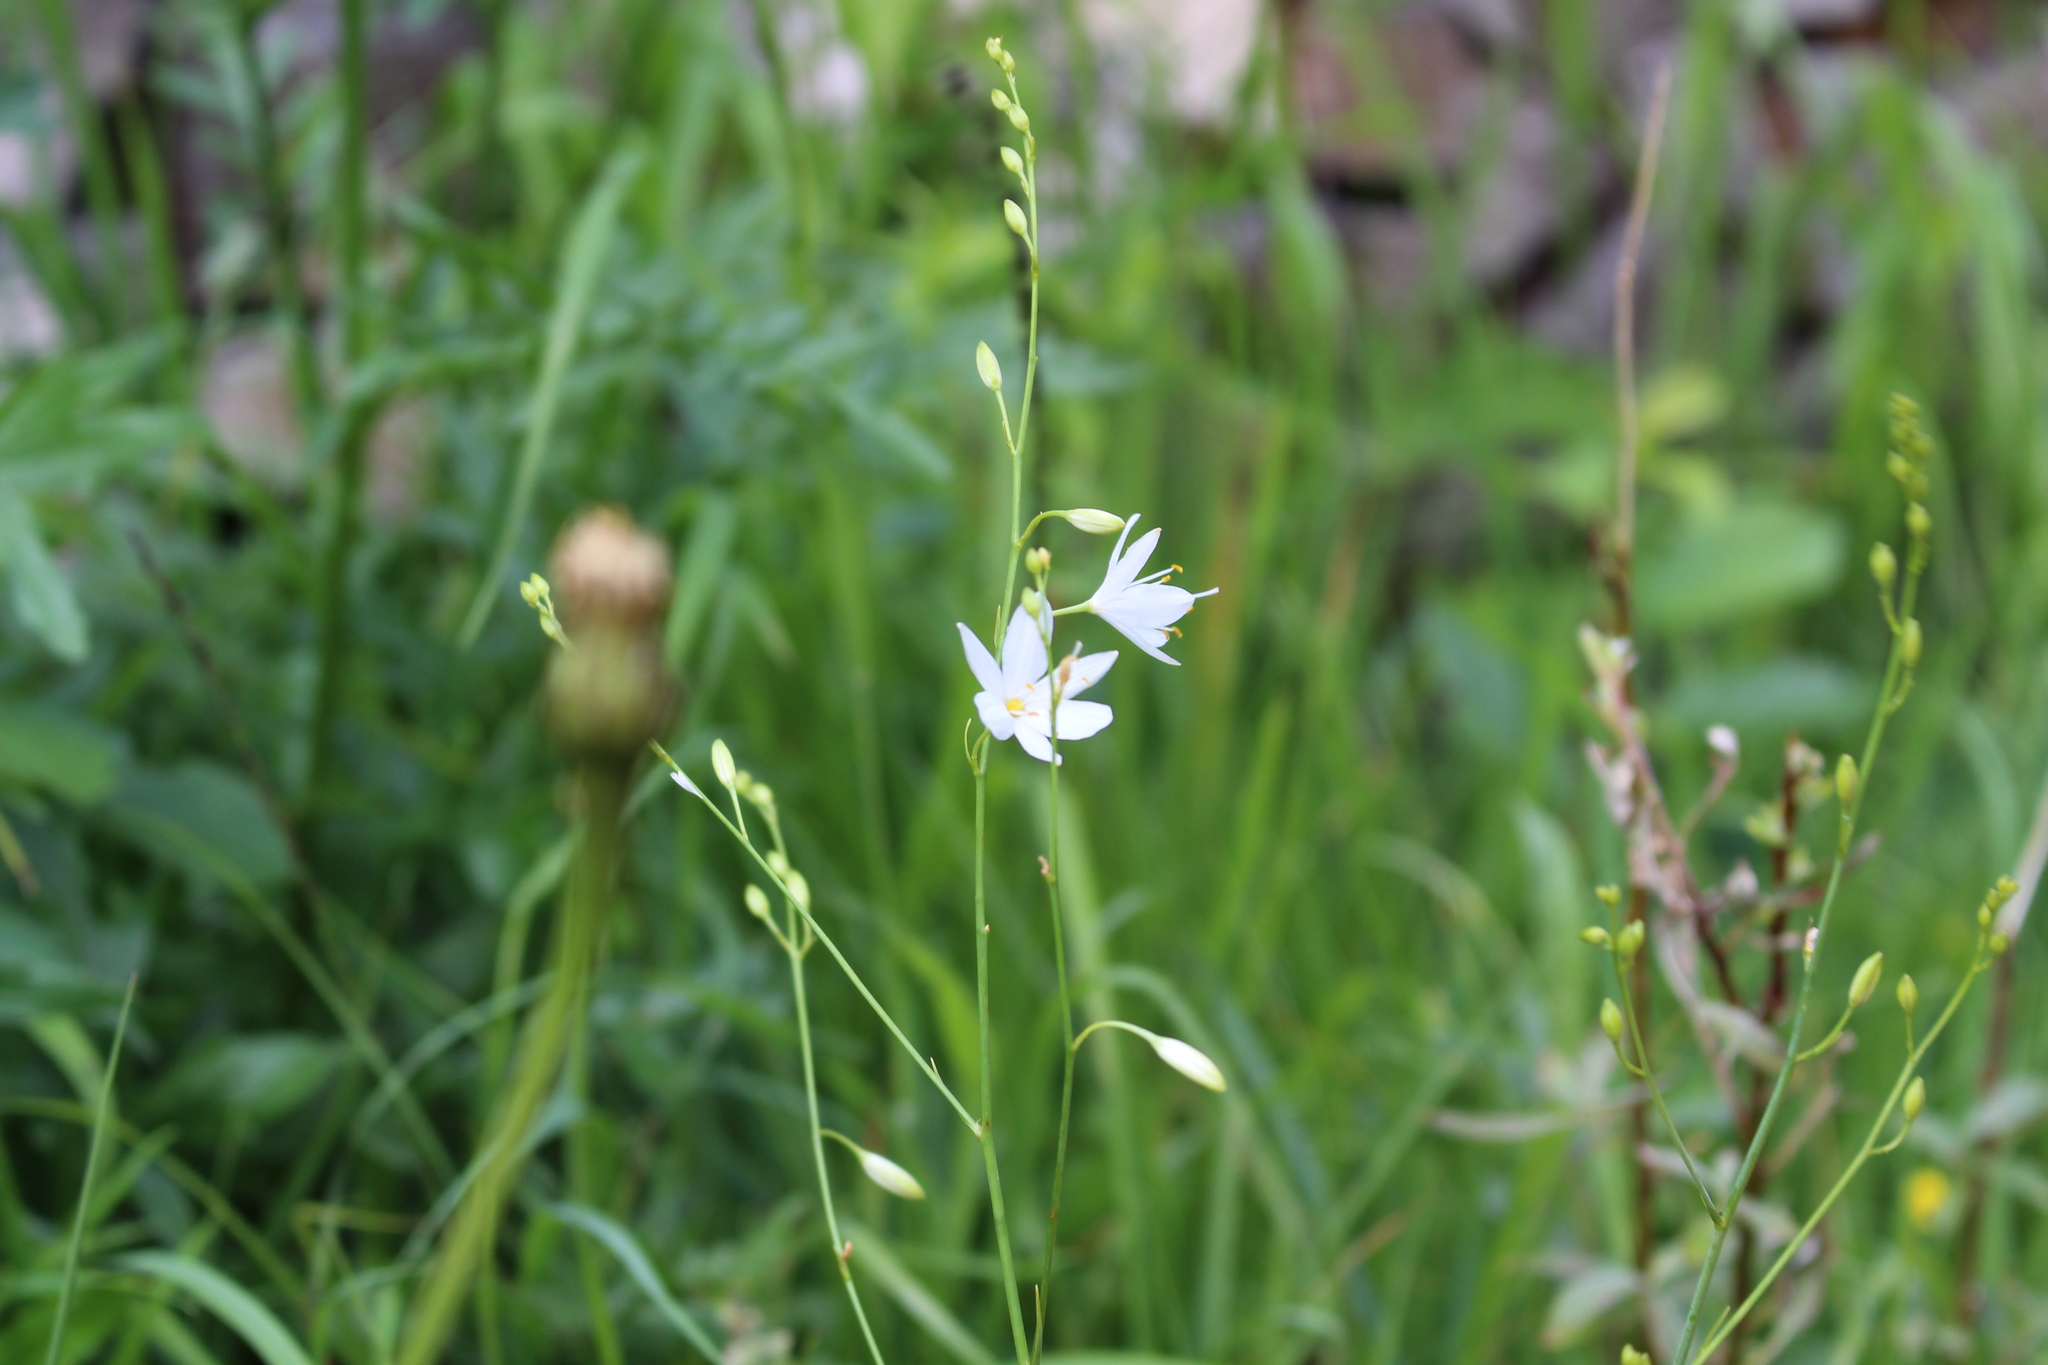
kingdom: Plantae
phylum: Tracheophyta
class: Liliopsida
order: Asparagales
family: Asparagaceae
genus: Anthericum
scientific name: Anthericum ramosum
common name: Branched st. bernard's-lily
